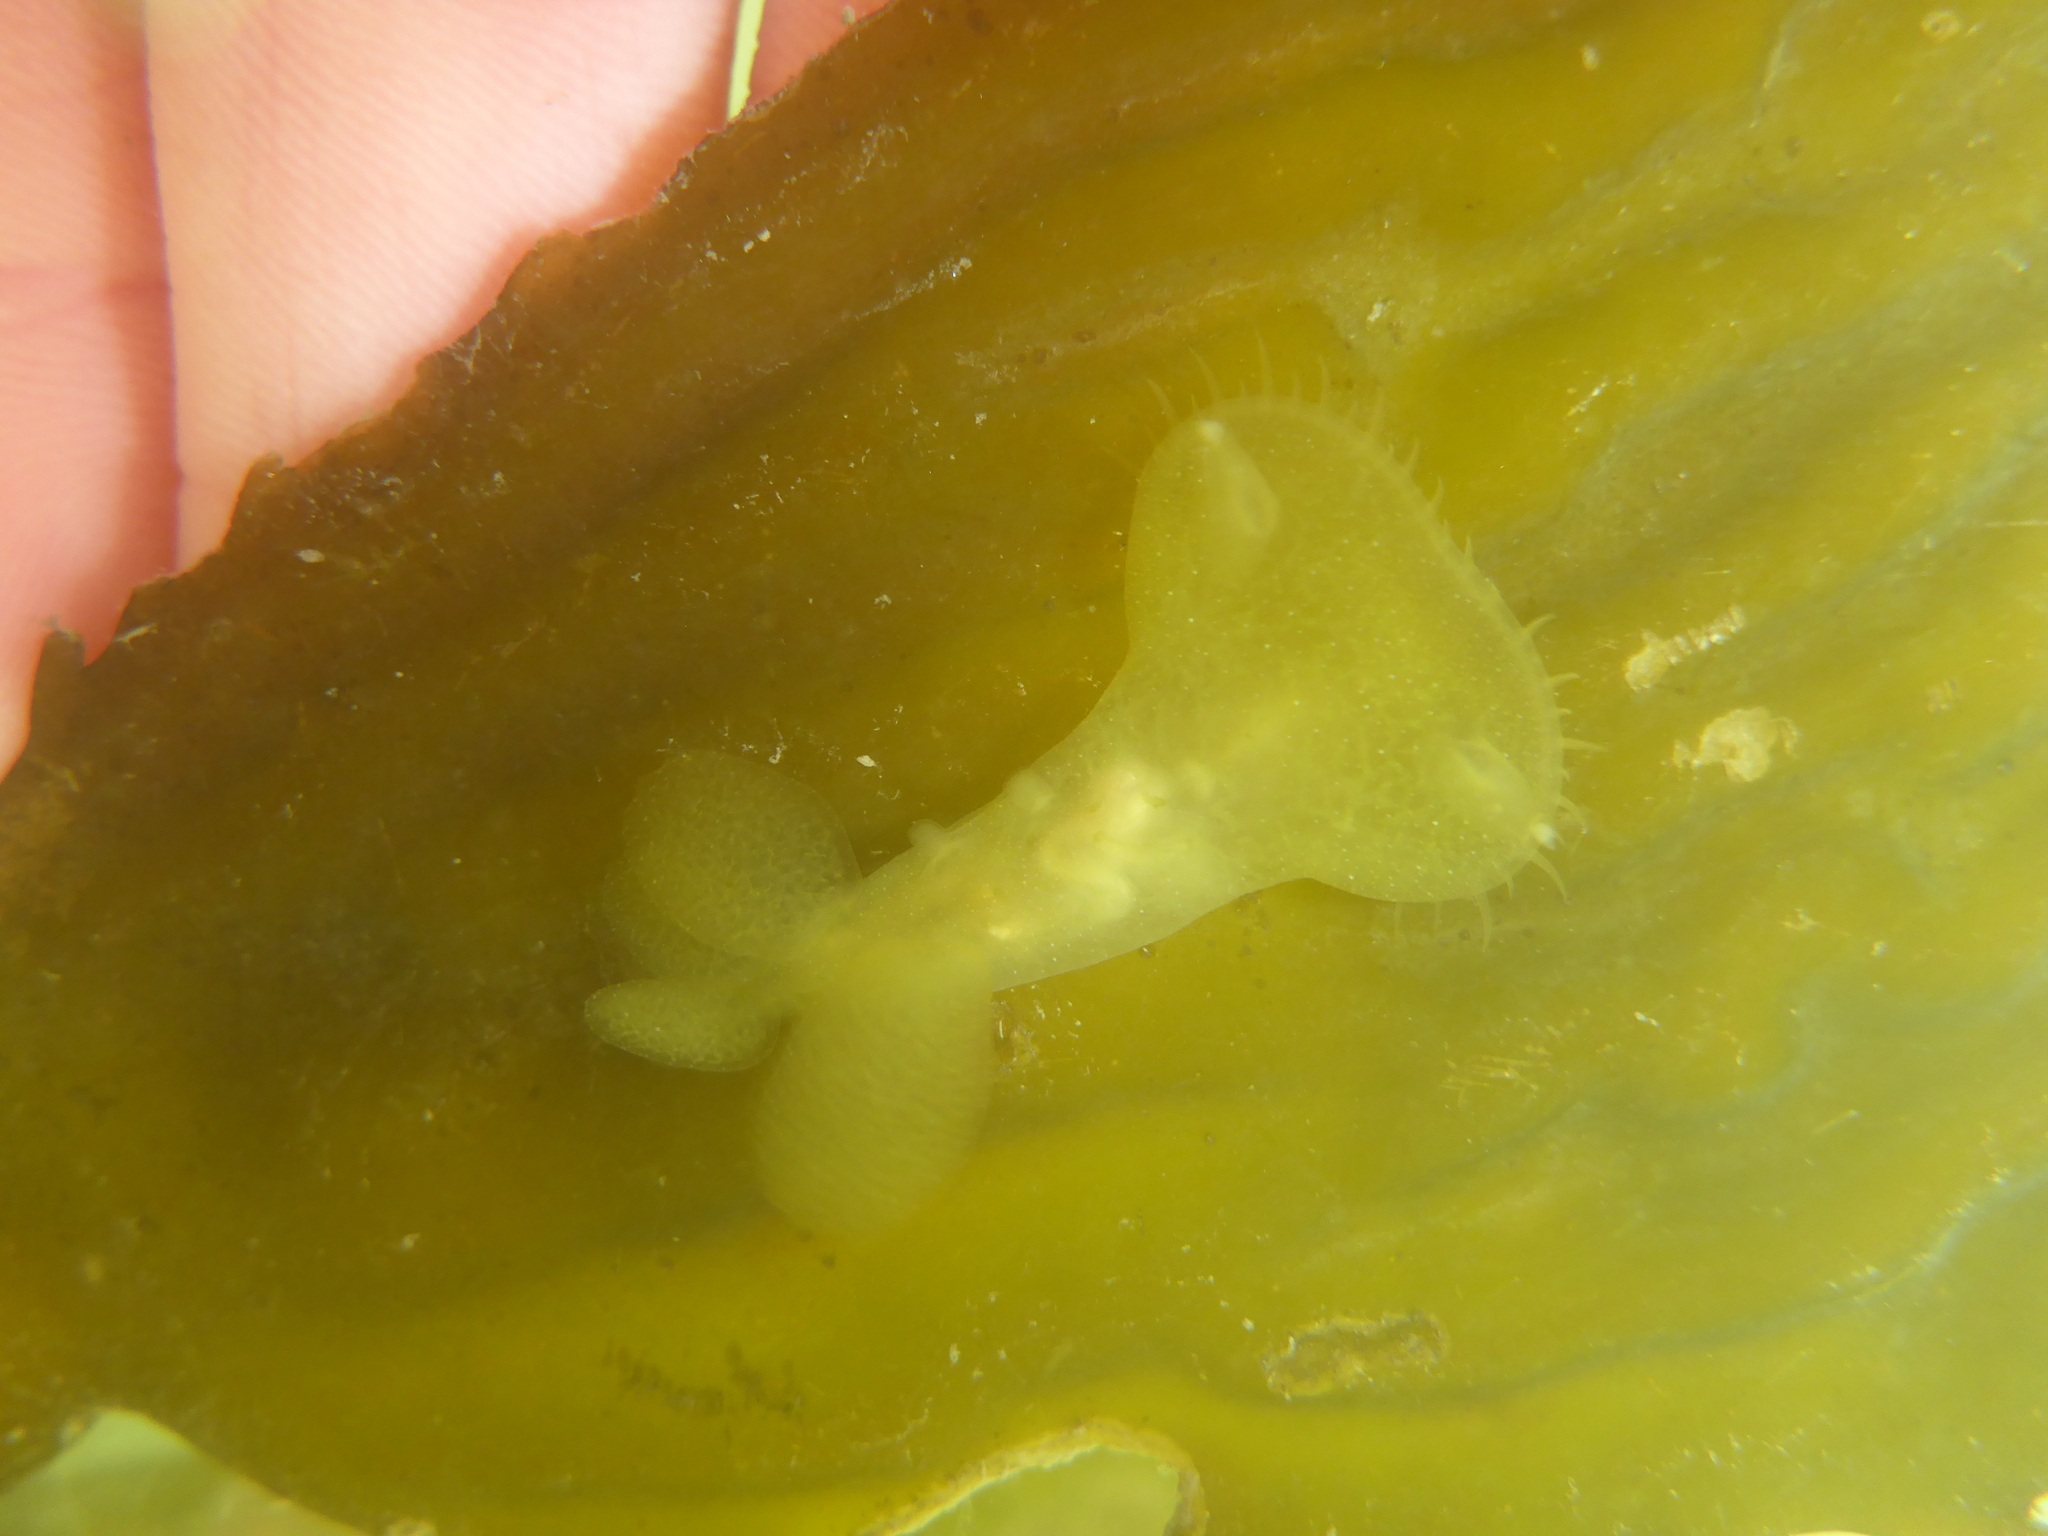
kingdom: Animalia
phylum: Mollusca
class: Gastropoda
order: Nudibranchia
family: Tethydidae
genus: Melibe
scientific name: Melibe leonina
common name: Lion nudibranch
